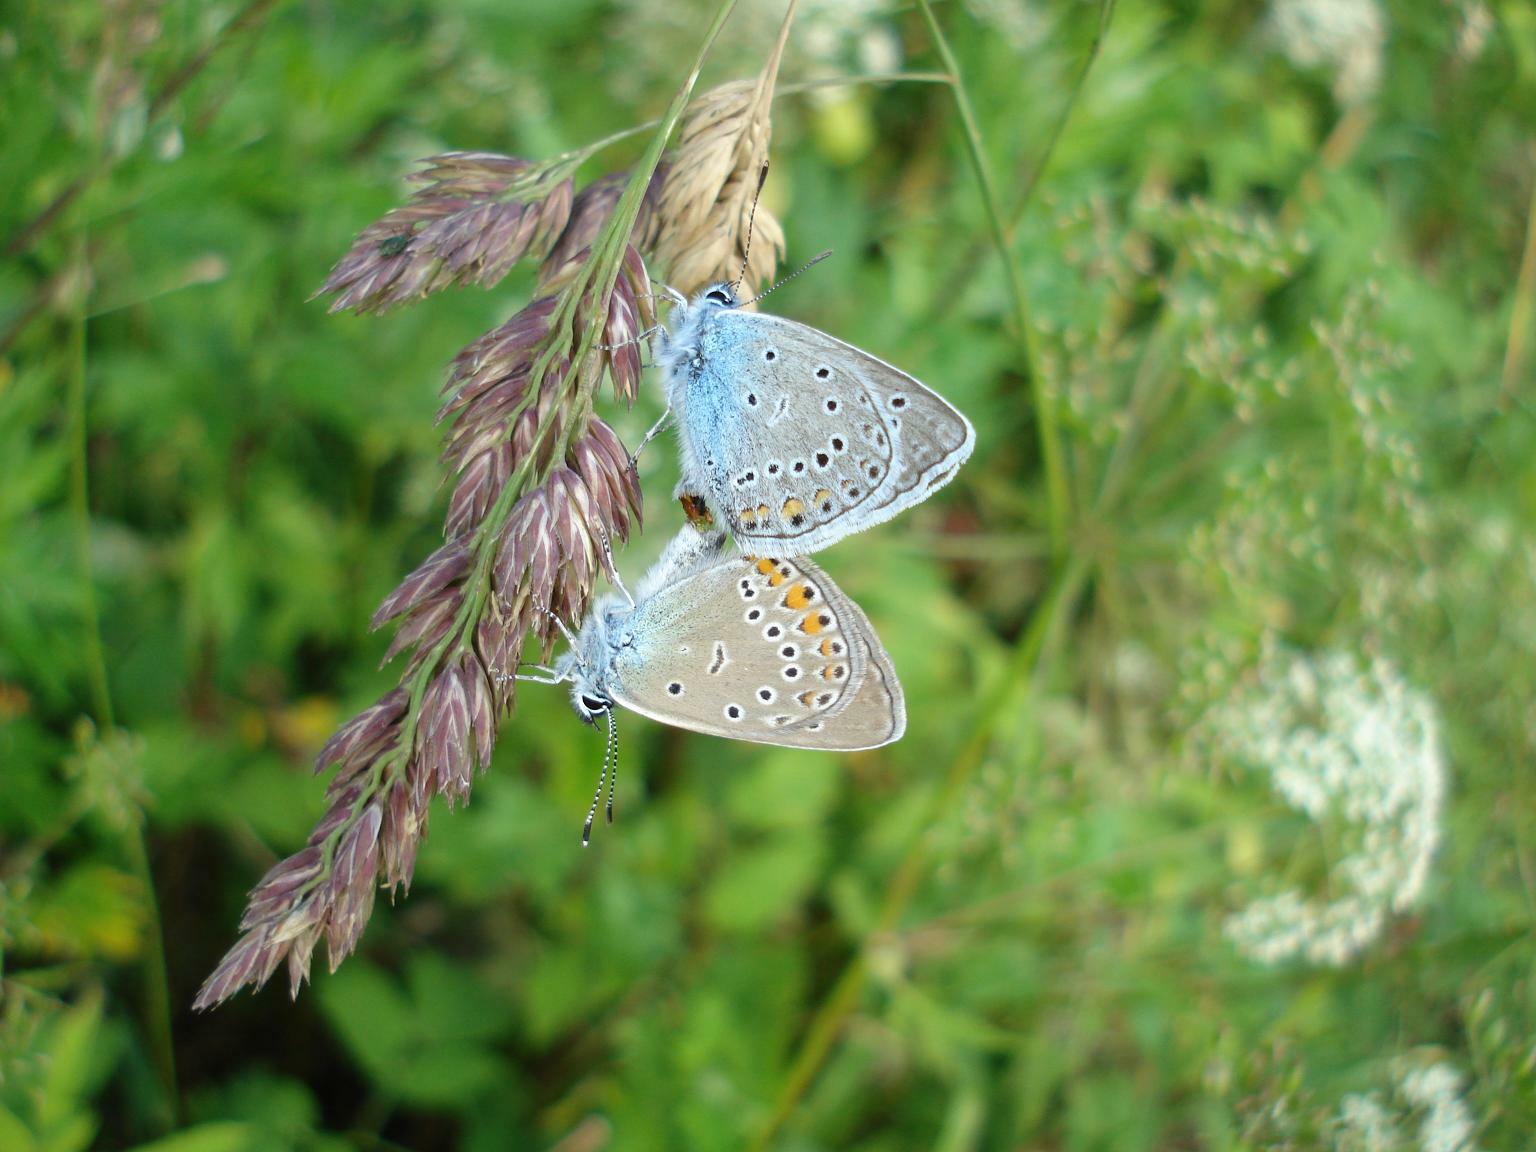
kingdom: Animalia
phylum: Arthropoda
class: Insecta
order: Lepidoptera
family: Lycaenidae
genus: Plebejus
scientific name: Plebejus amanda
